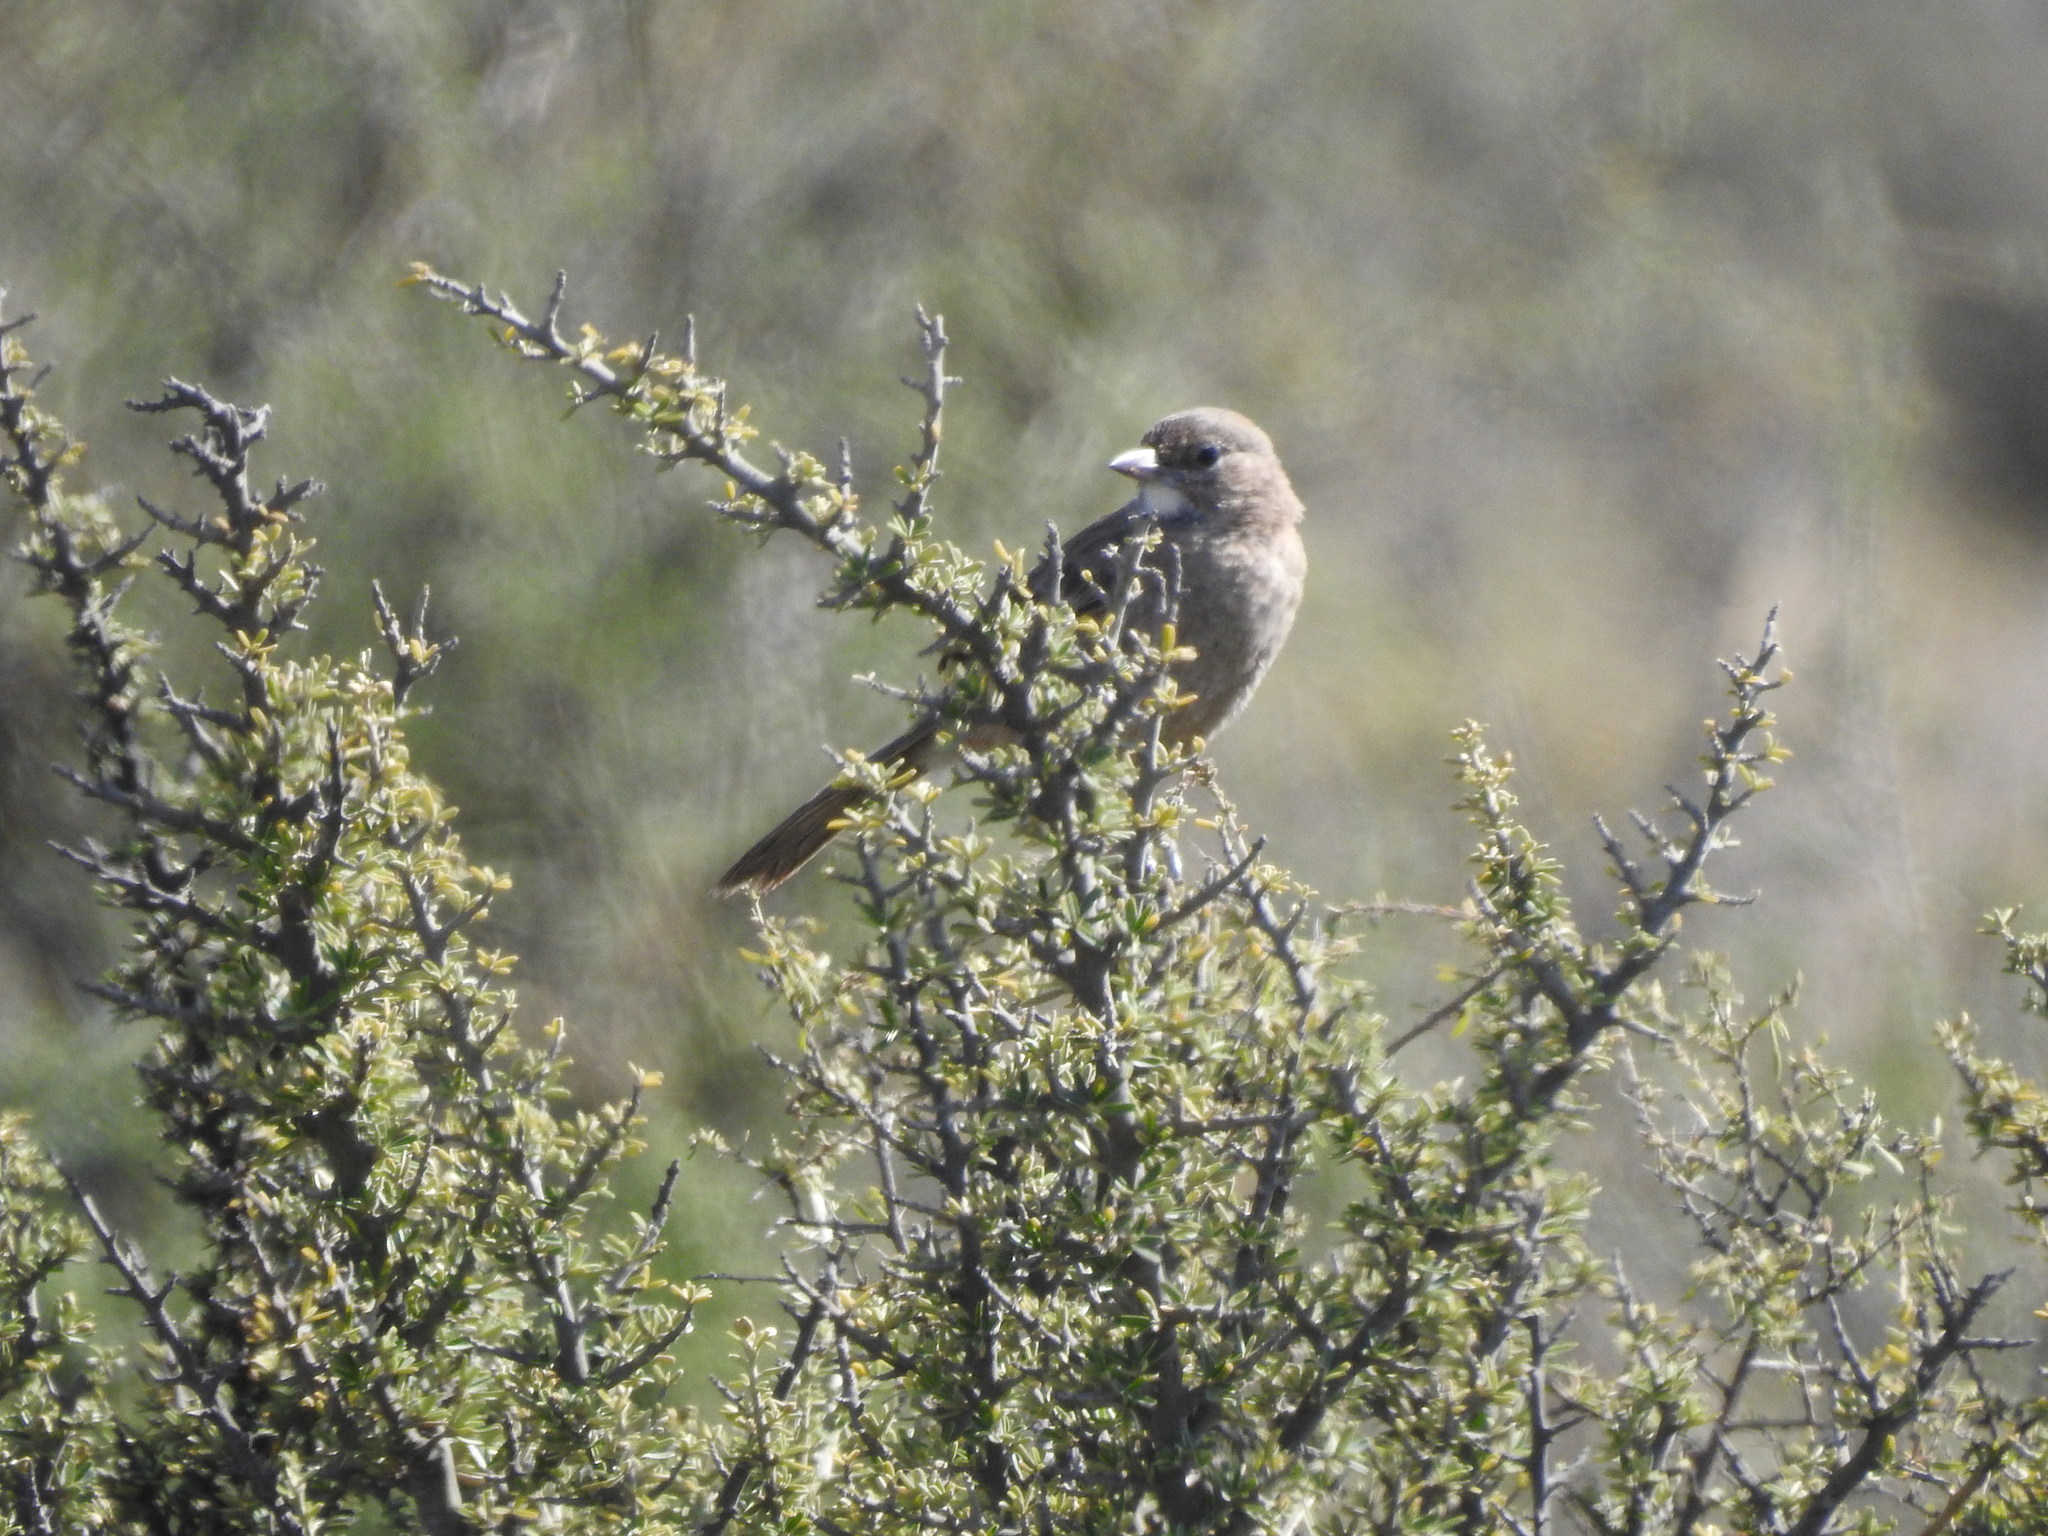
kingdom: Animalia
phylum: Chordata
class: Aves
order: Passeriformes
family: Furnariidae
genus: Pseudoseisura
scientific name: Pseudoseisura gutturalis
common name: White-throated cacholote
